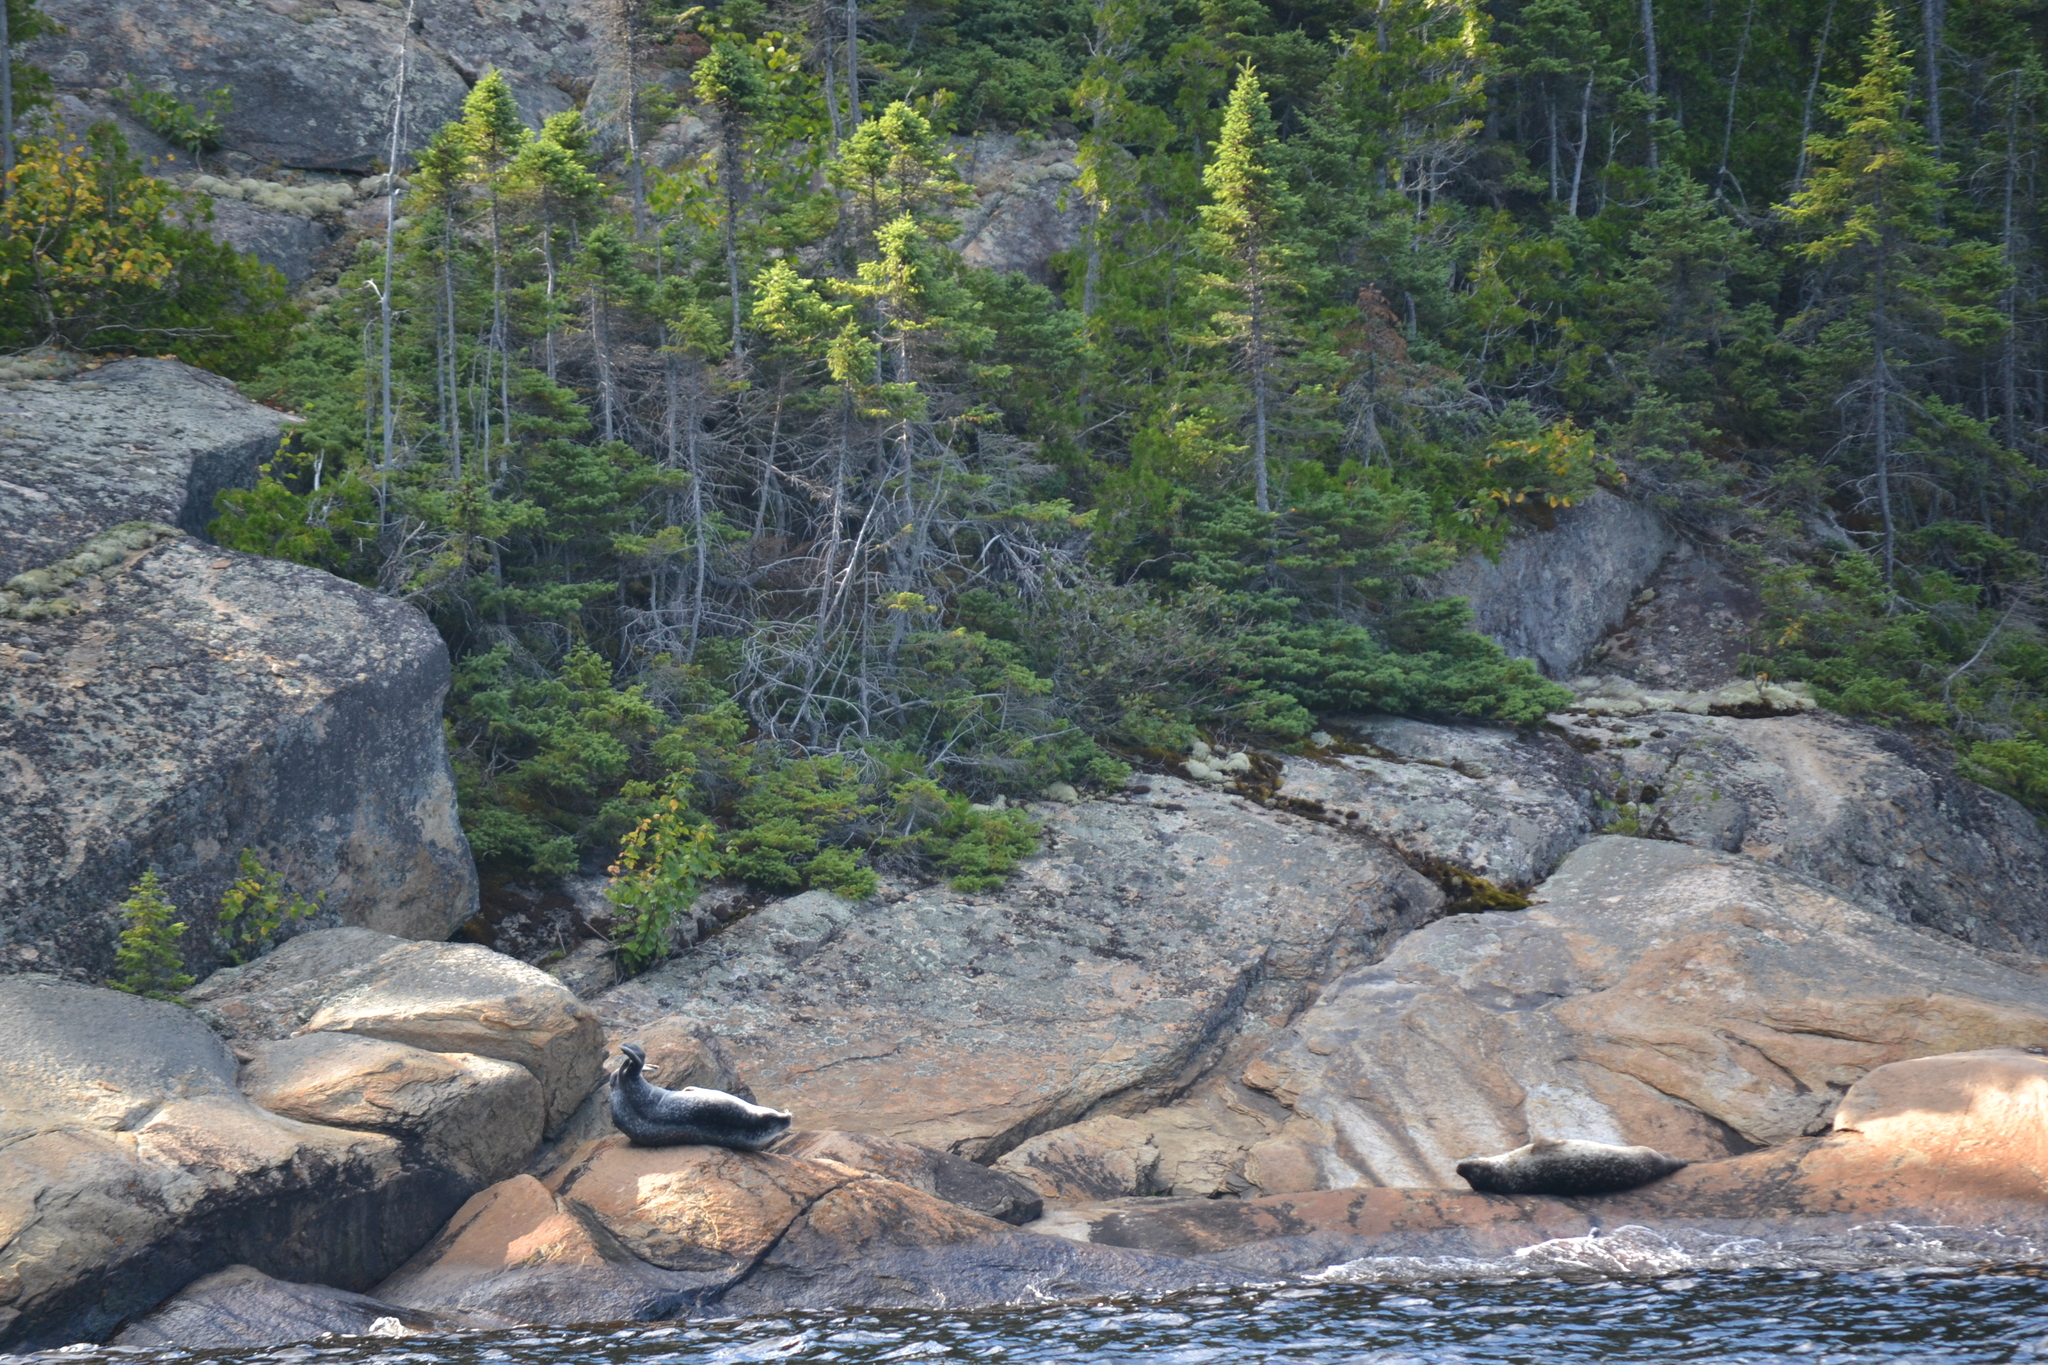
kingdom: Animalia
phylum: Chordata
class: Mammalia
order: Carnivora
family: Phocidae
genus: Phoca
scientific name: Phoca vitulina
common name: Harbor seal
